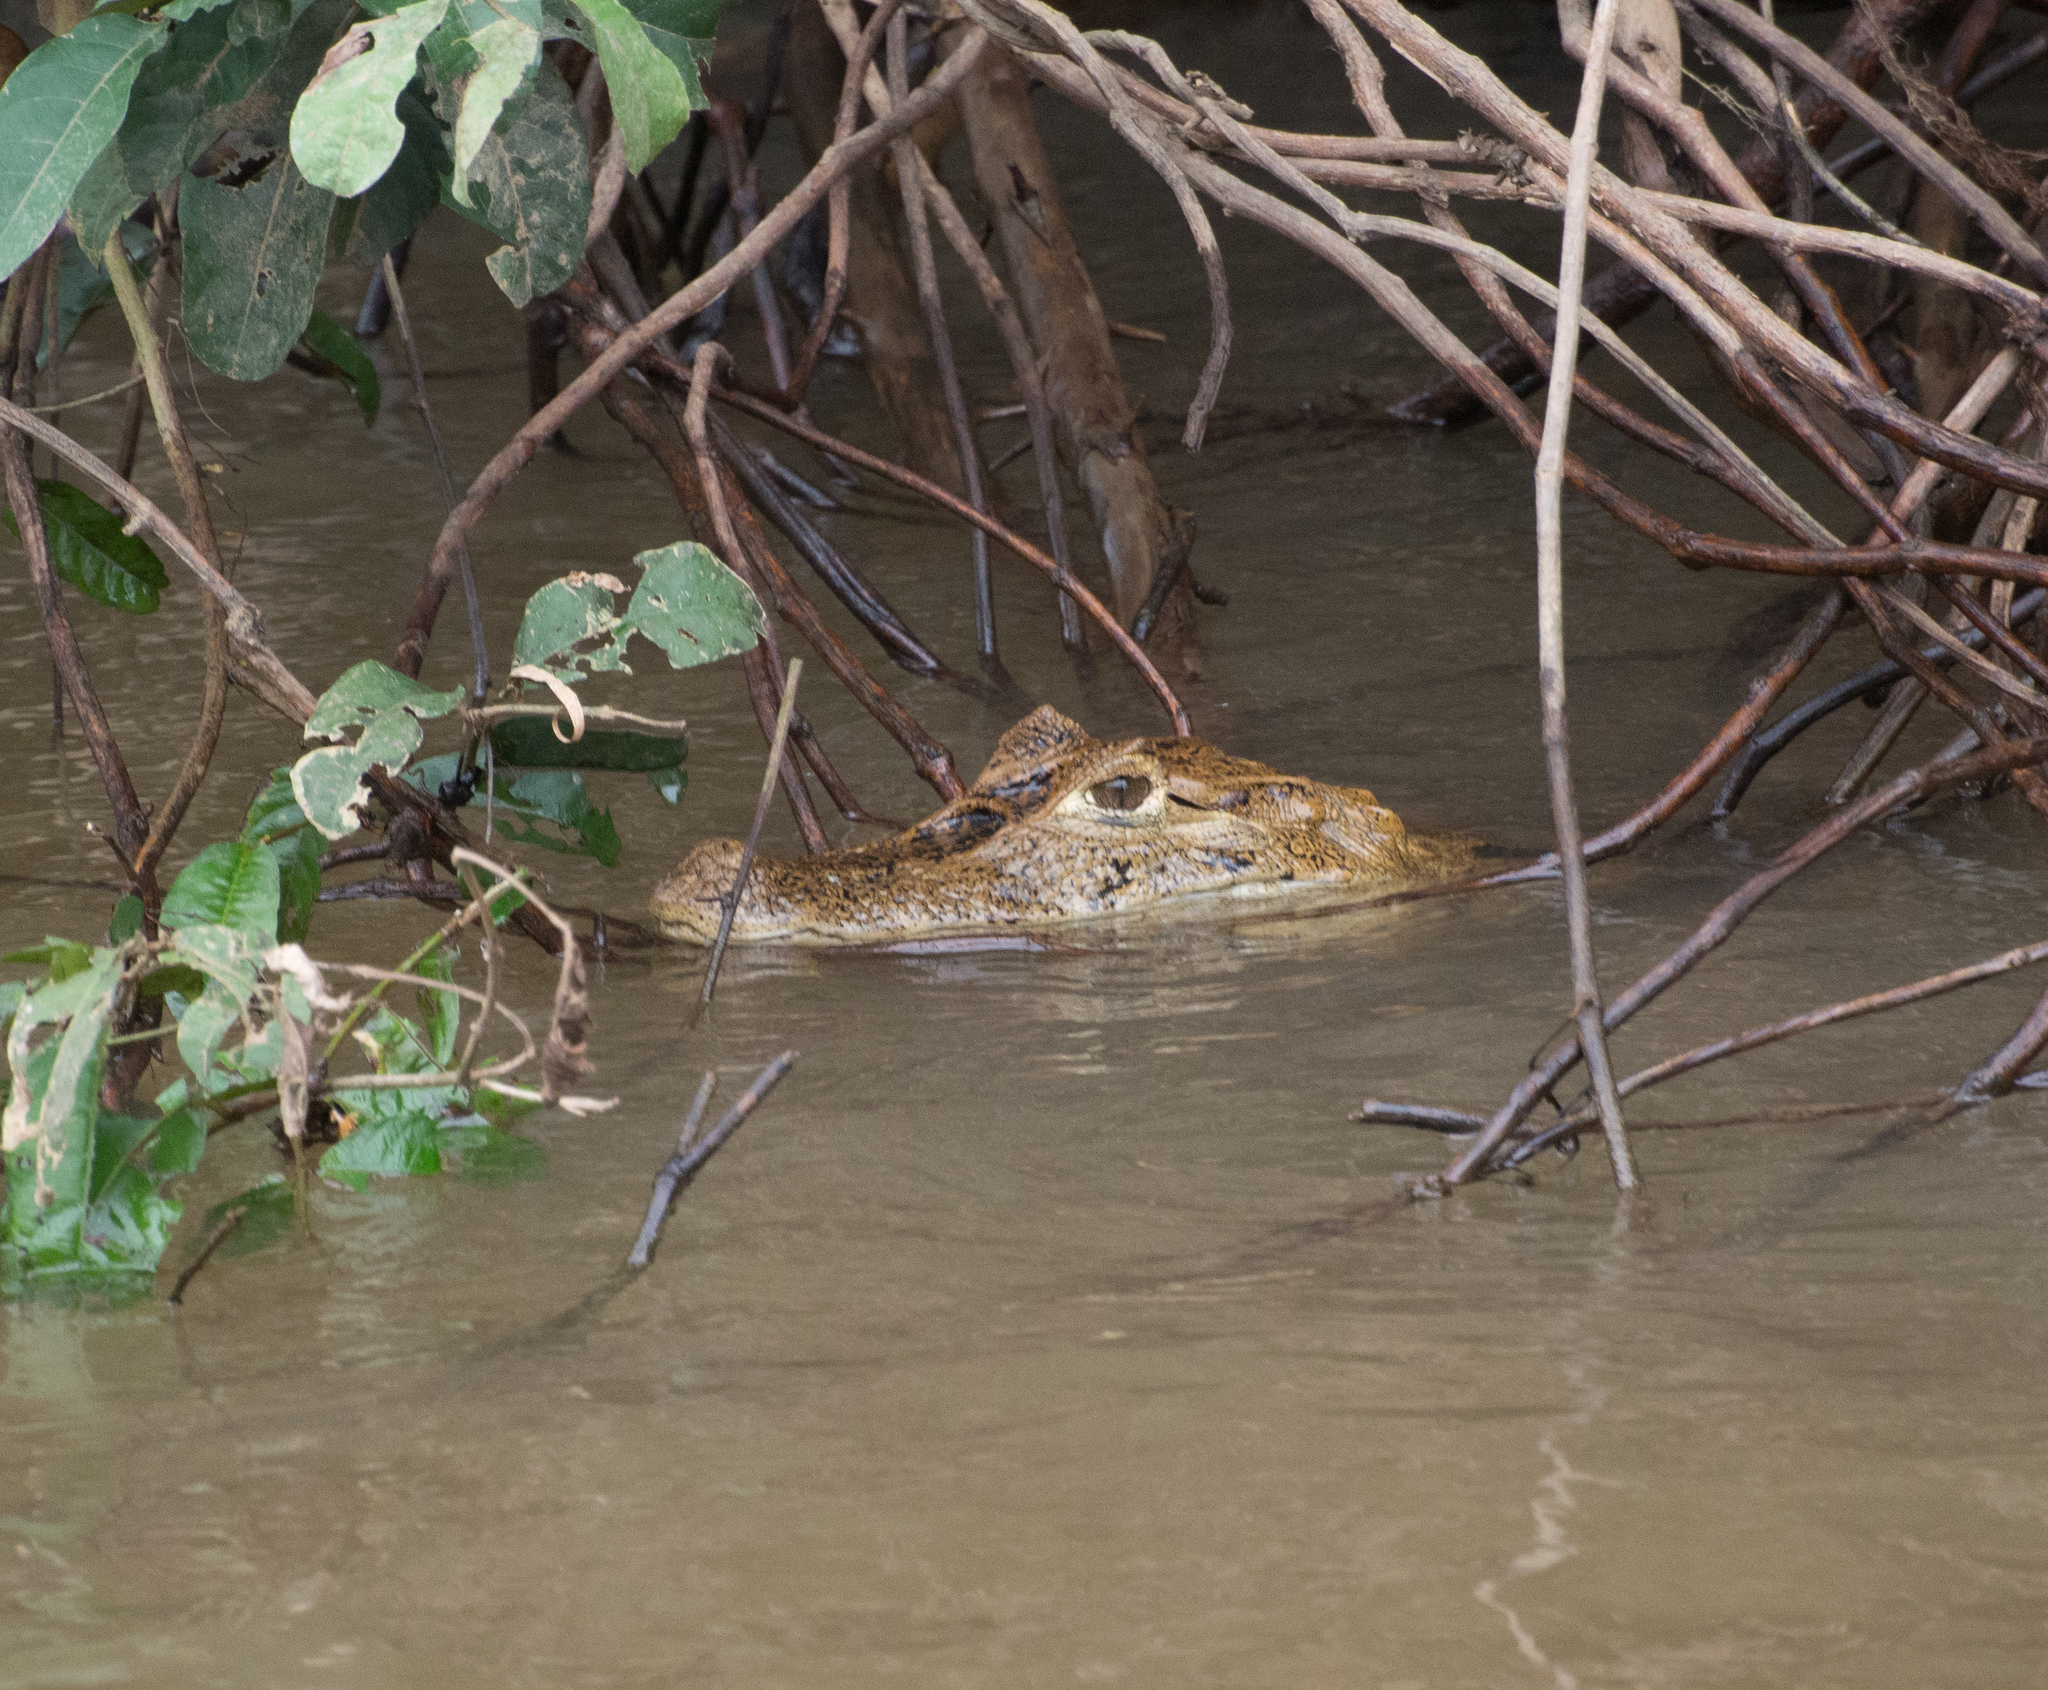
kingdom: Animalia
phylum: Chordata
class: Crocodylia
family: Alligatoridae
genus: Caiman
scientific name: Caiman crocodilus
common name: Common caiman
